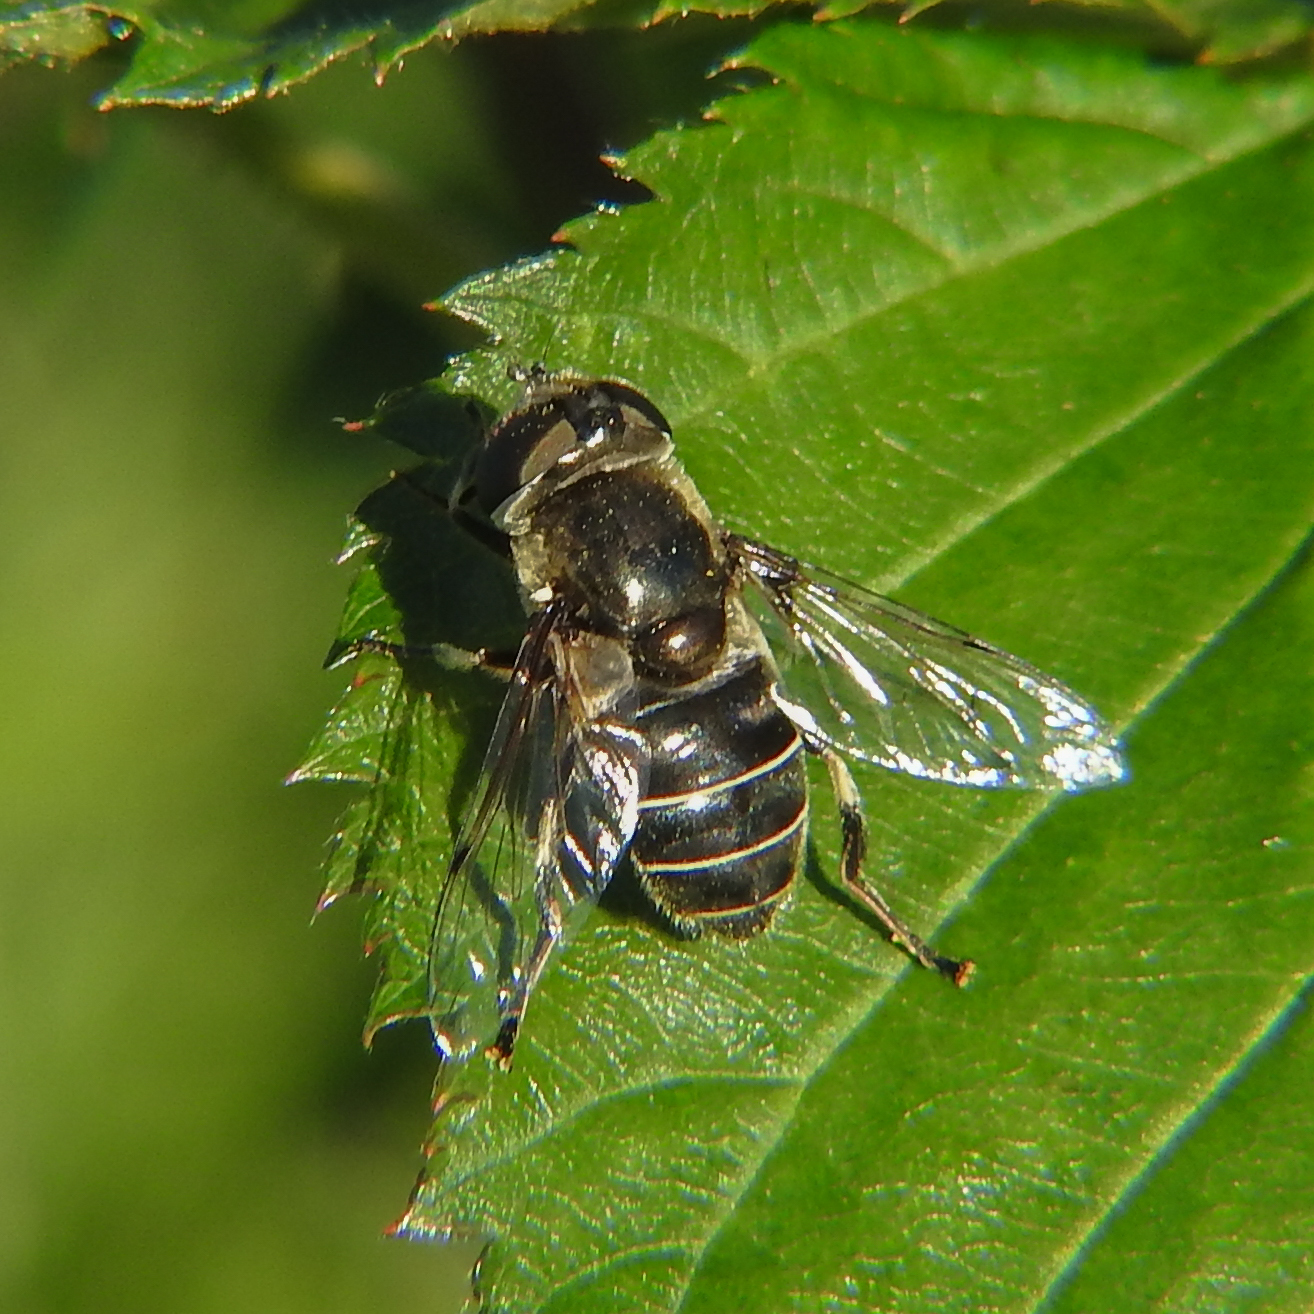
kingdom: Animalia
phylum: Arthropoda
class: Insecta
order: Diptera
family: Syrphidae
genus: Eristalis
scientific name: Eristalis dimidiata
